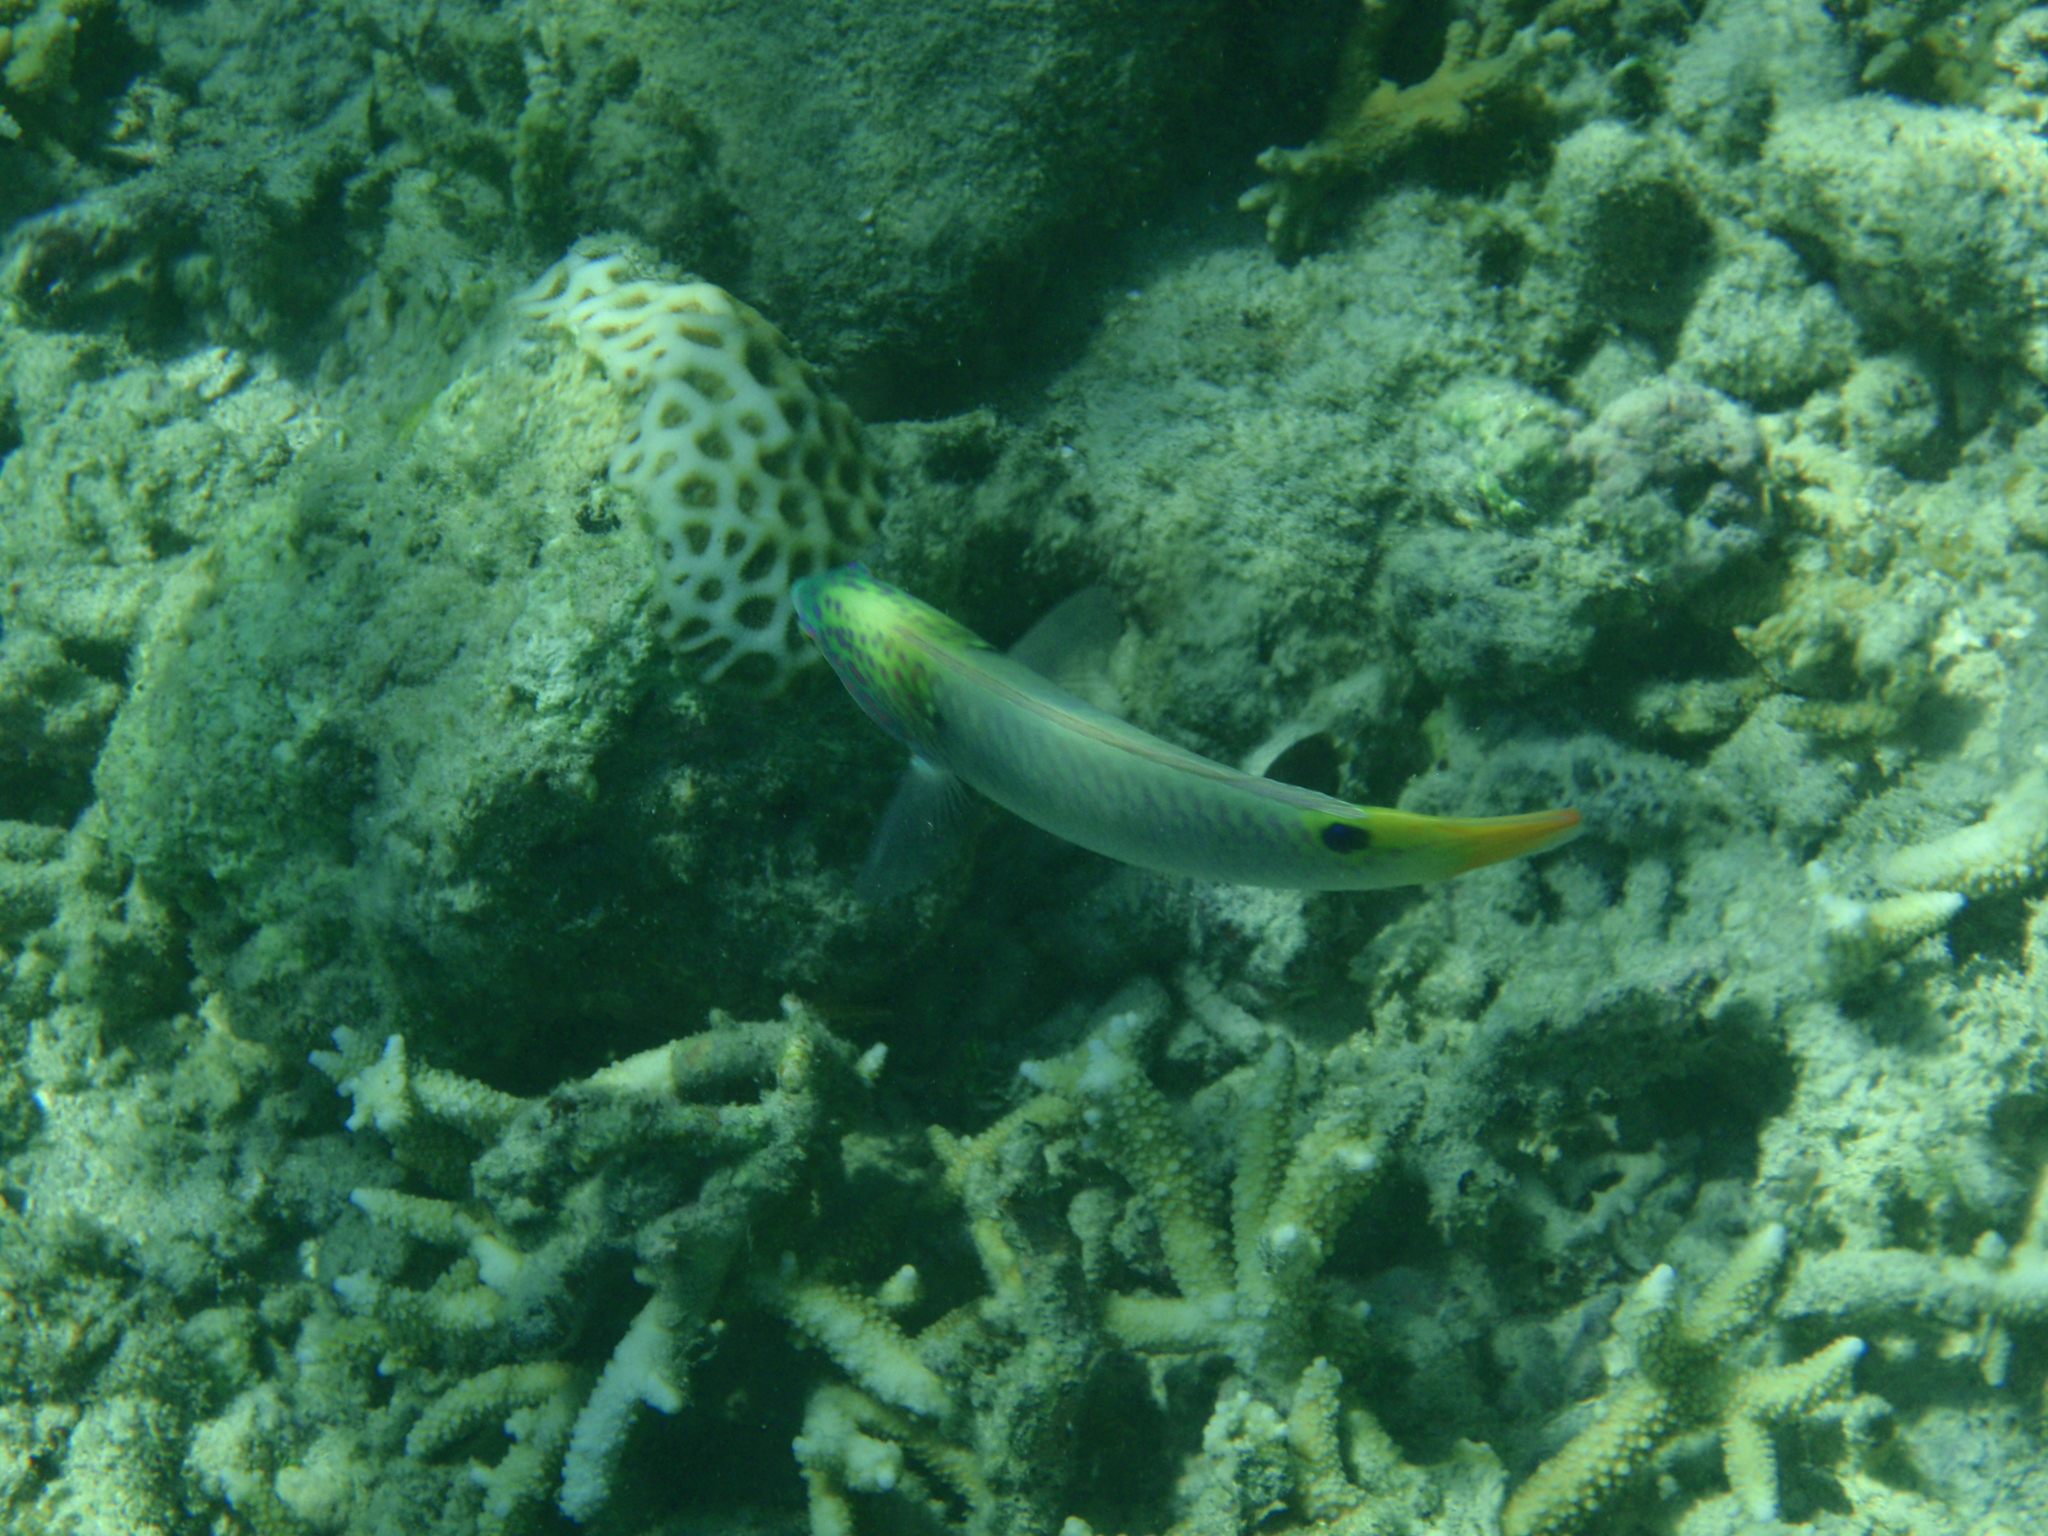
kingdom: Animalia
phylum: Chordata
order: Perciformes
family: Labridae
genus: Halichoeres
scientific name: Halichoeres trimaculatus
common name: Three-spot wrasse
